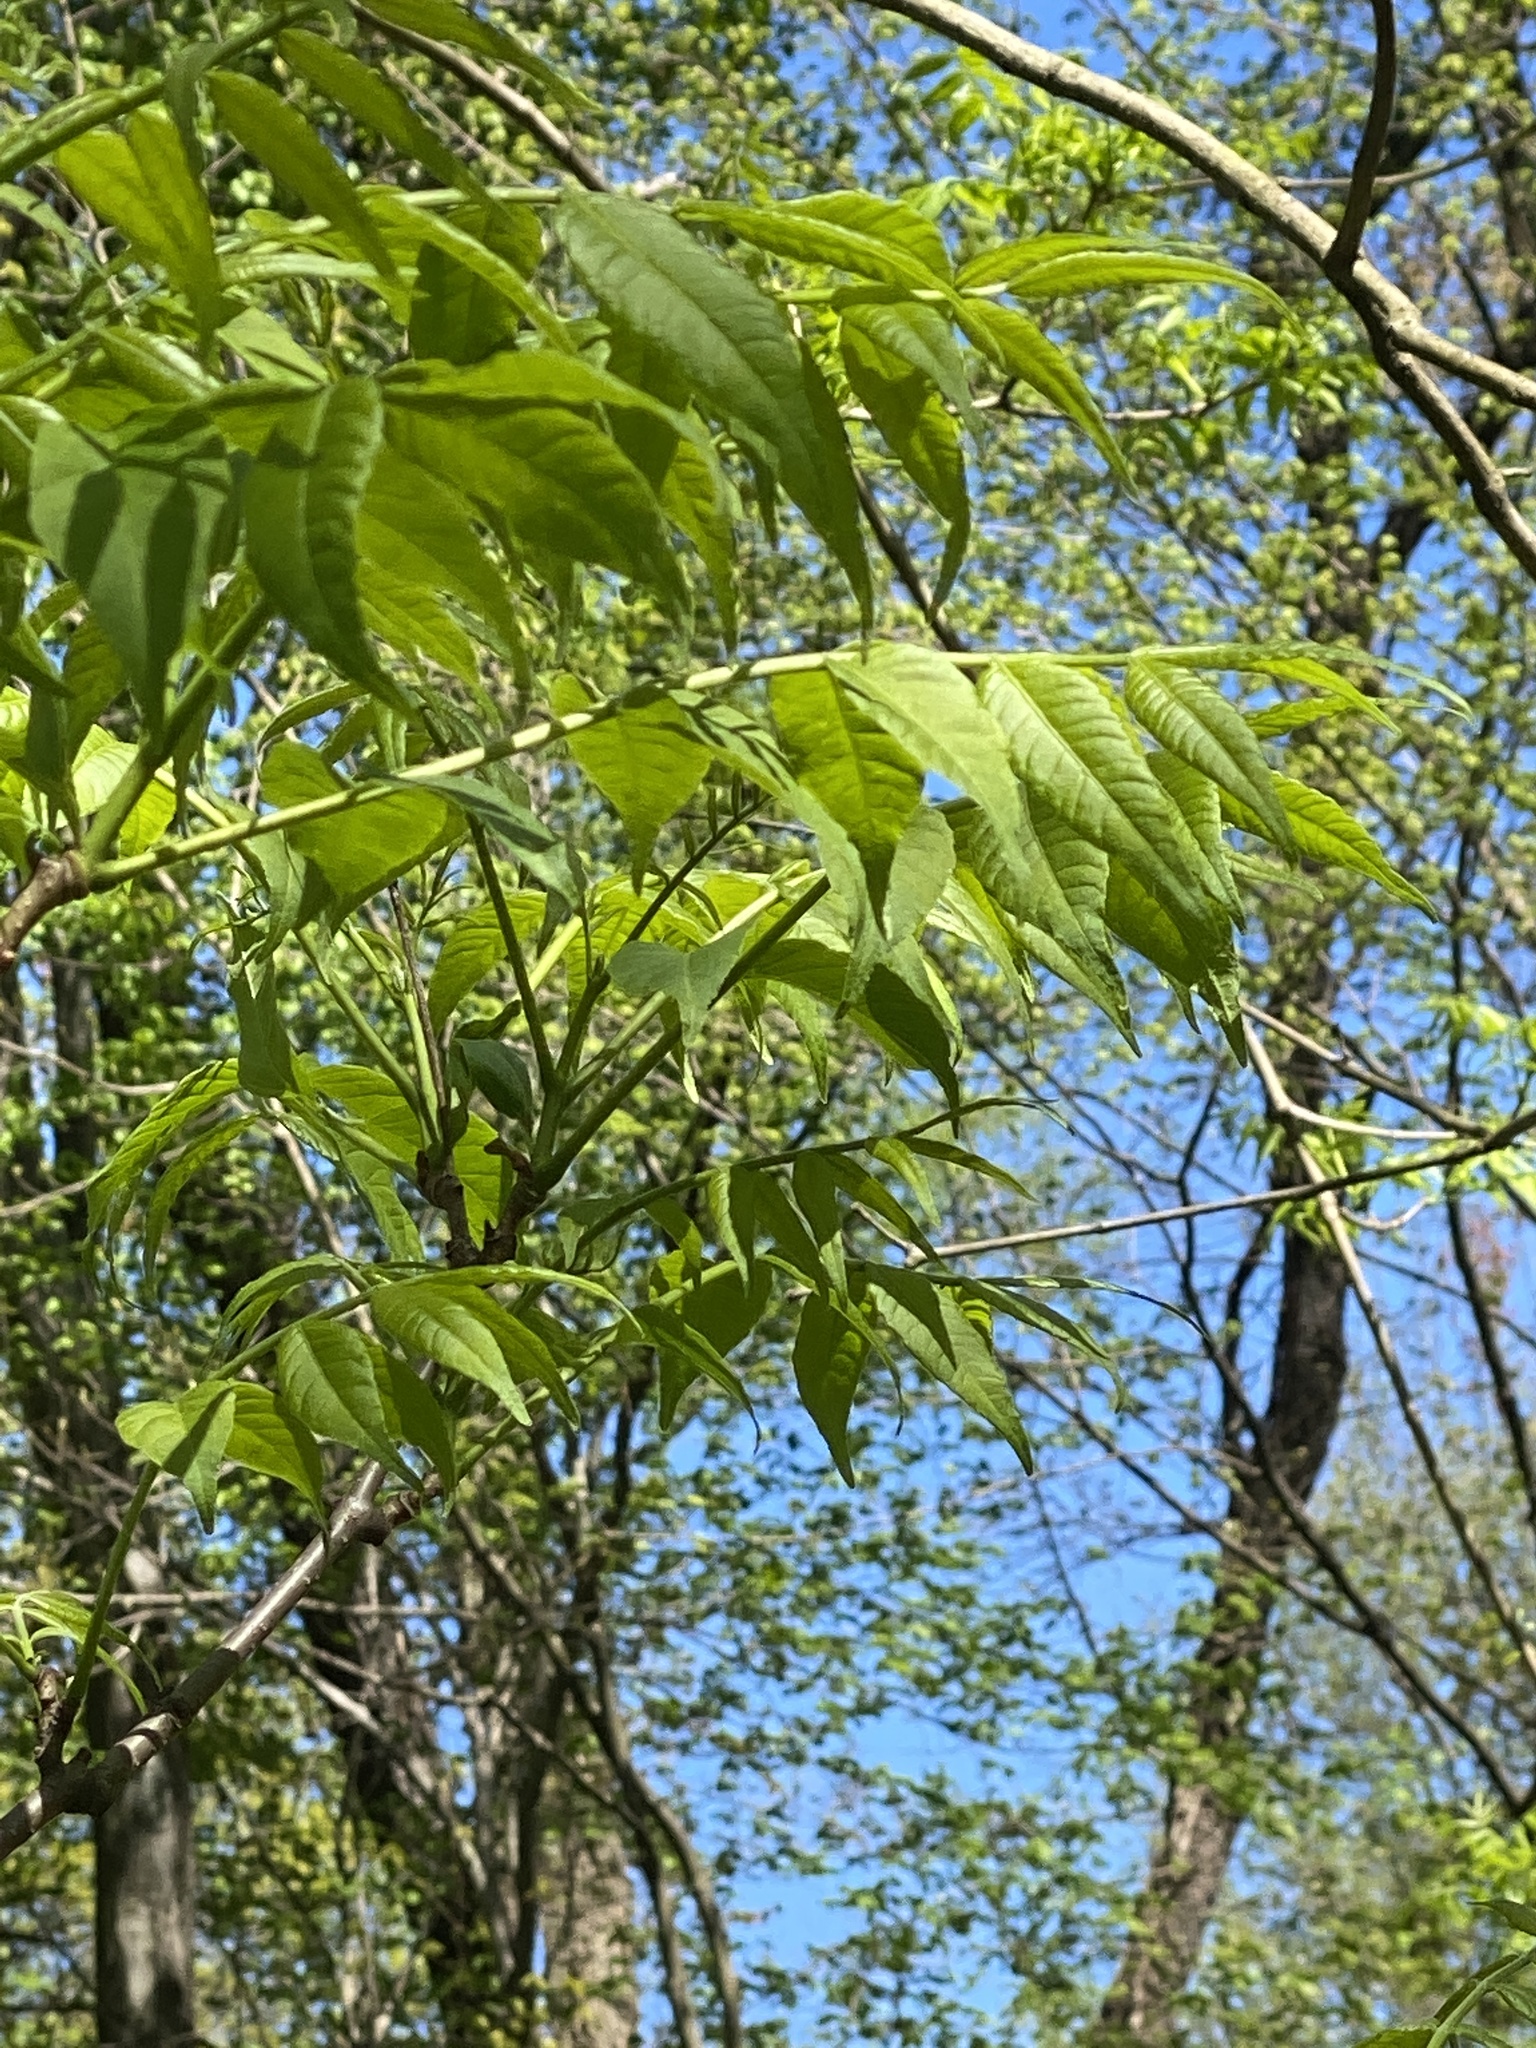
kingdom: Plantae
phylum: Tracheophyta
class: Magnoliopsida
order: Sapindales
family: Rutaceae
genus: Phellodendron
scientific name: Phellodendron amurense
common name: Amur corktree
